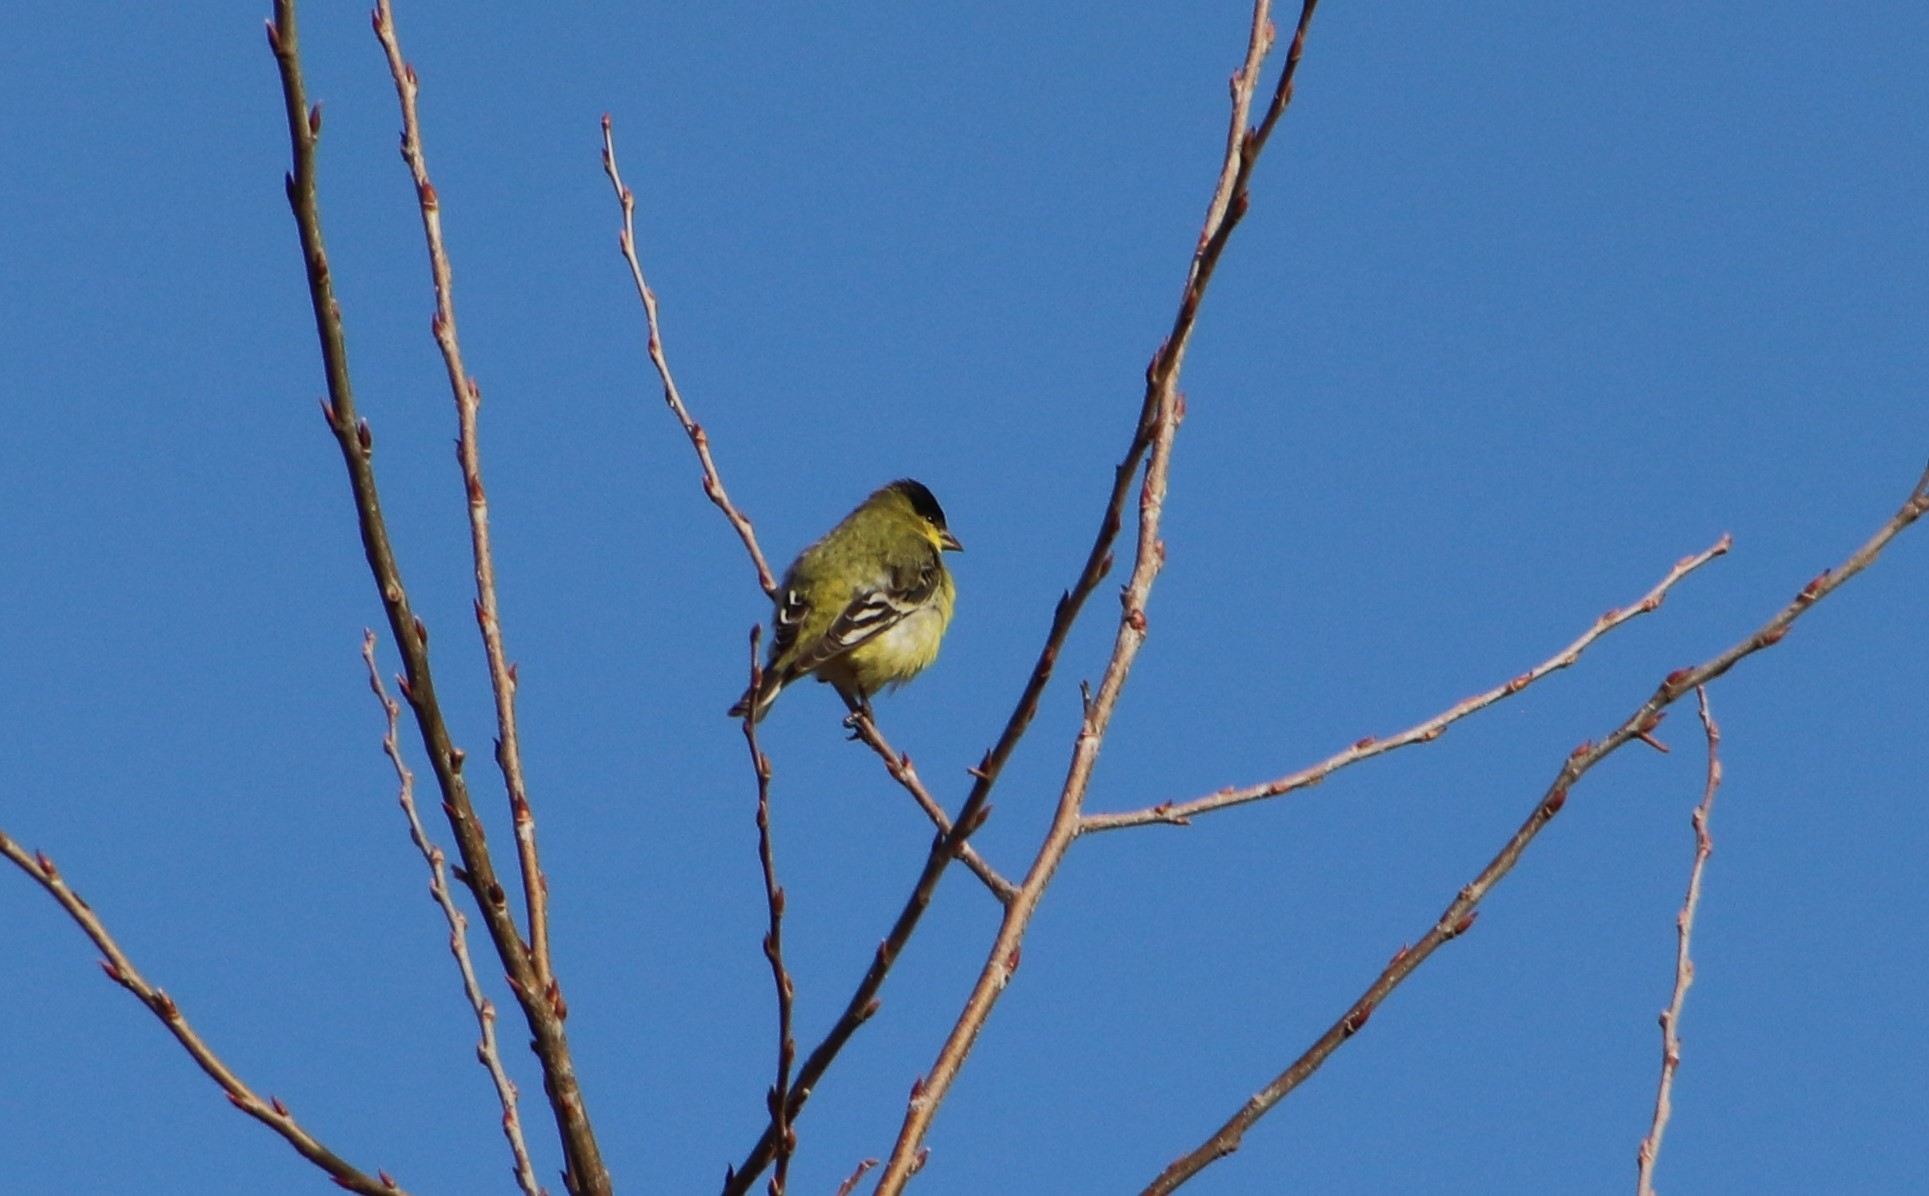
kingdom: Animalia
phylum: Chordata
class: Aves
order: Passeriformes
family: Fringillidae
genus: Spinus
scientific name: Spinus psaltria
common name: Lesser goldfinch
